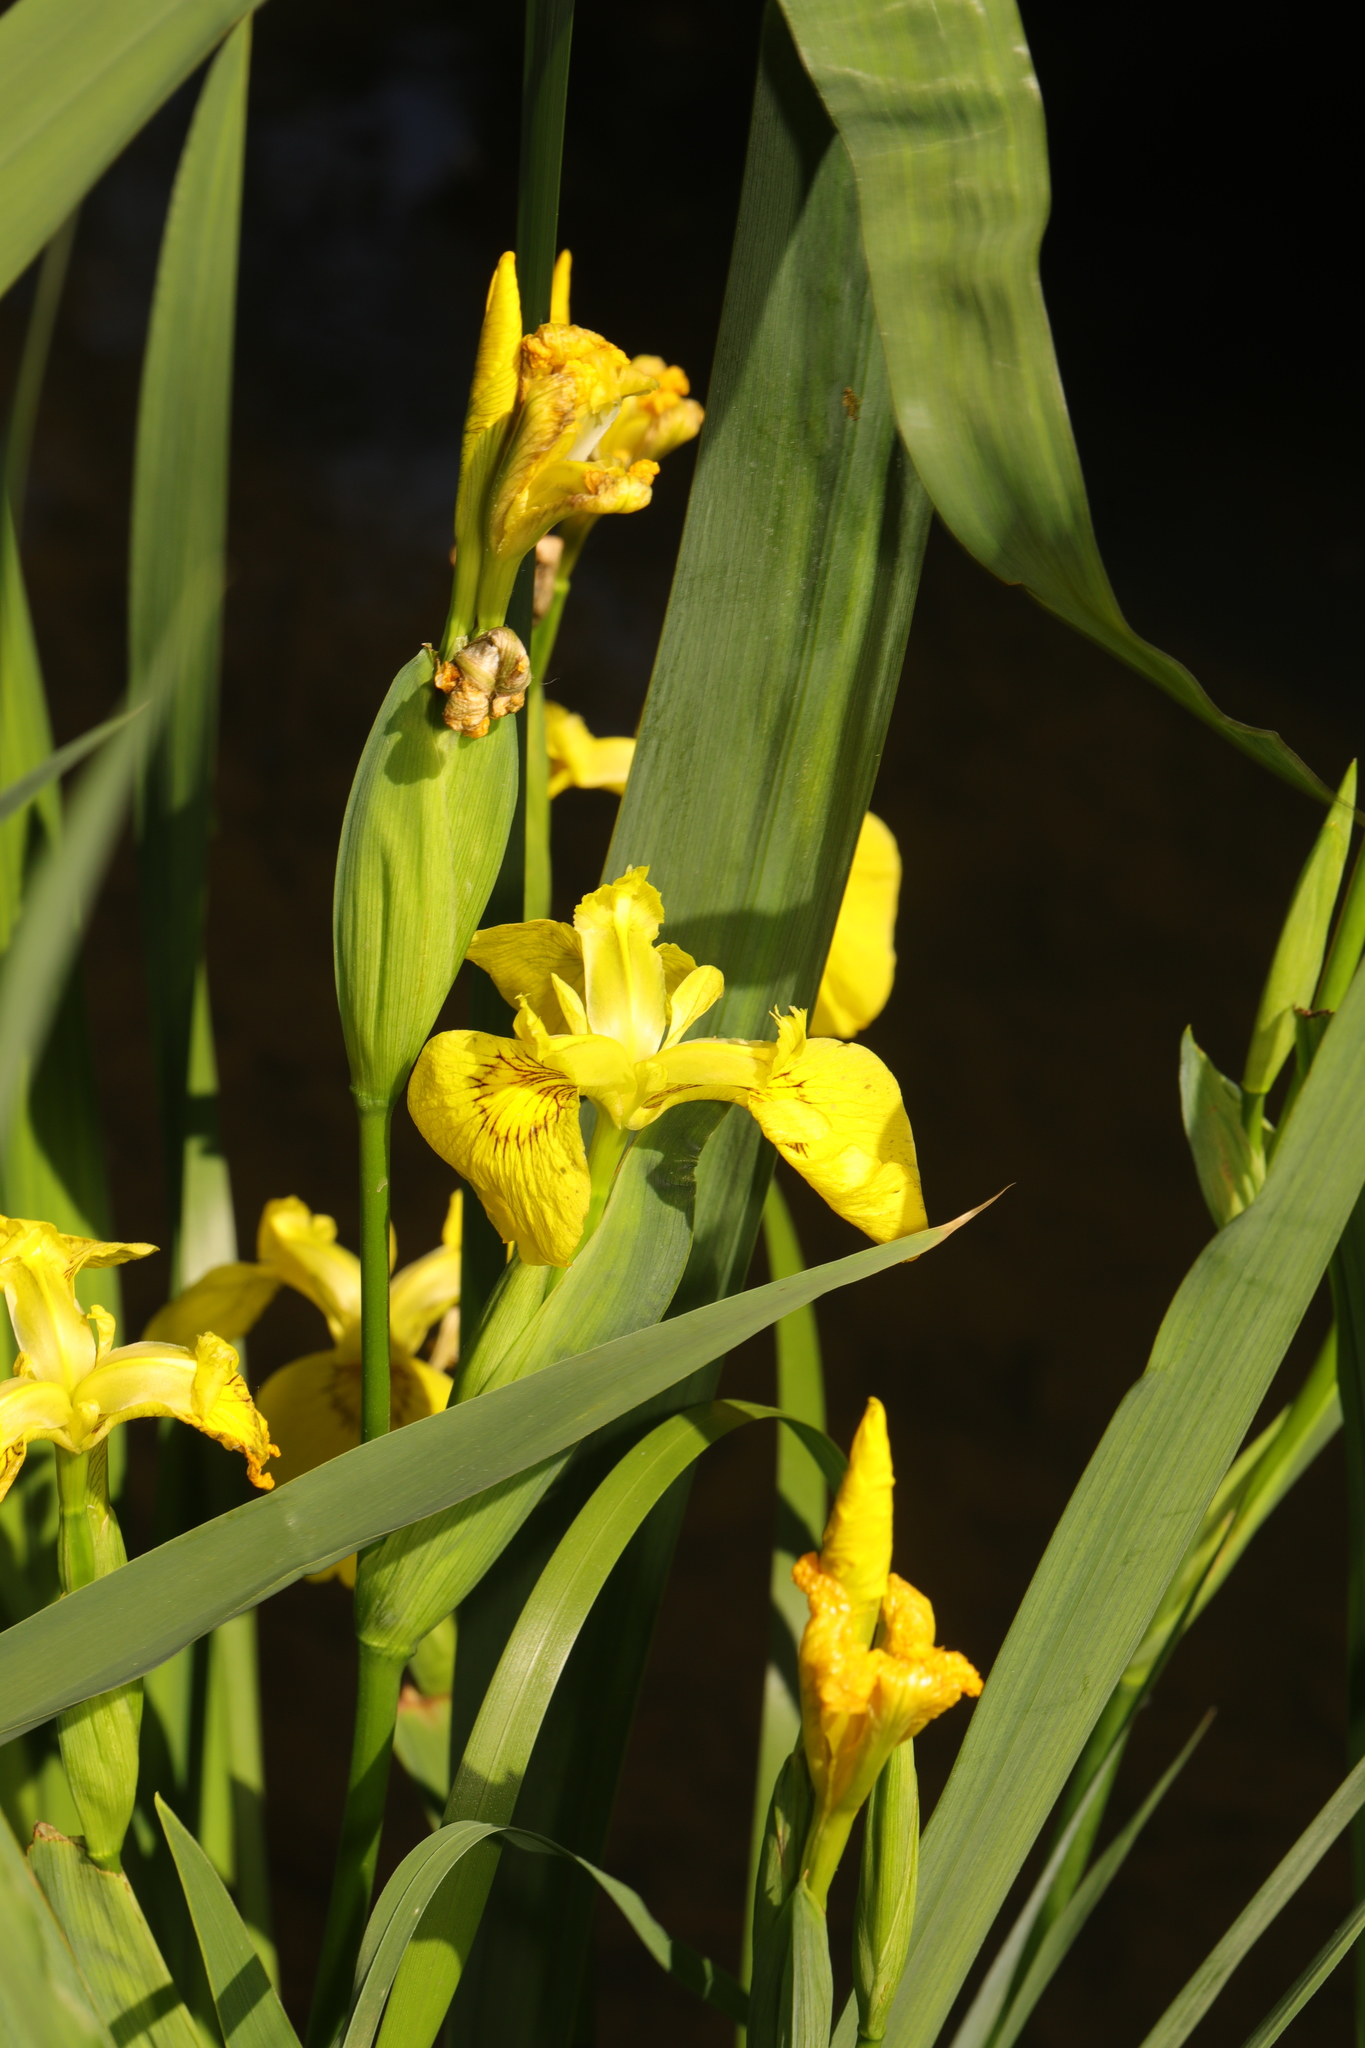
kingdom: Plantae
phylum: Tracheophyta
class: Liliopsida
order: Asparagales
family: Iridaceae
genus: Iris
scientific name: Iris pseudacorus
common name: Yellow flag
